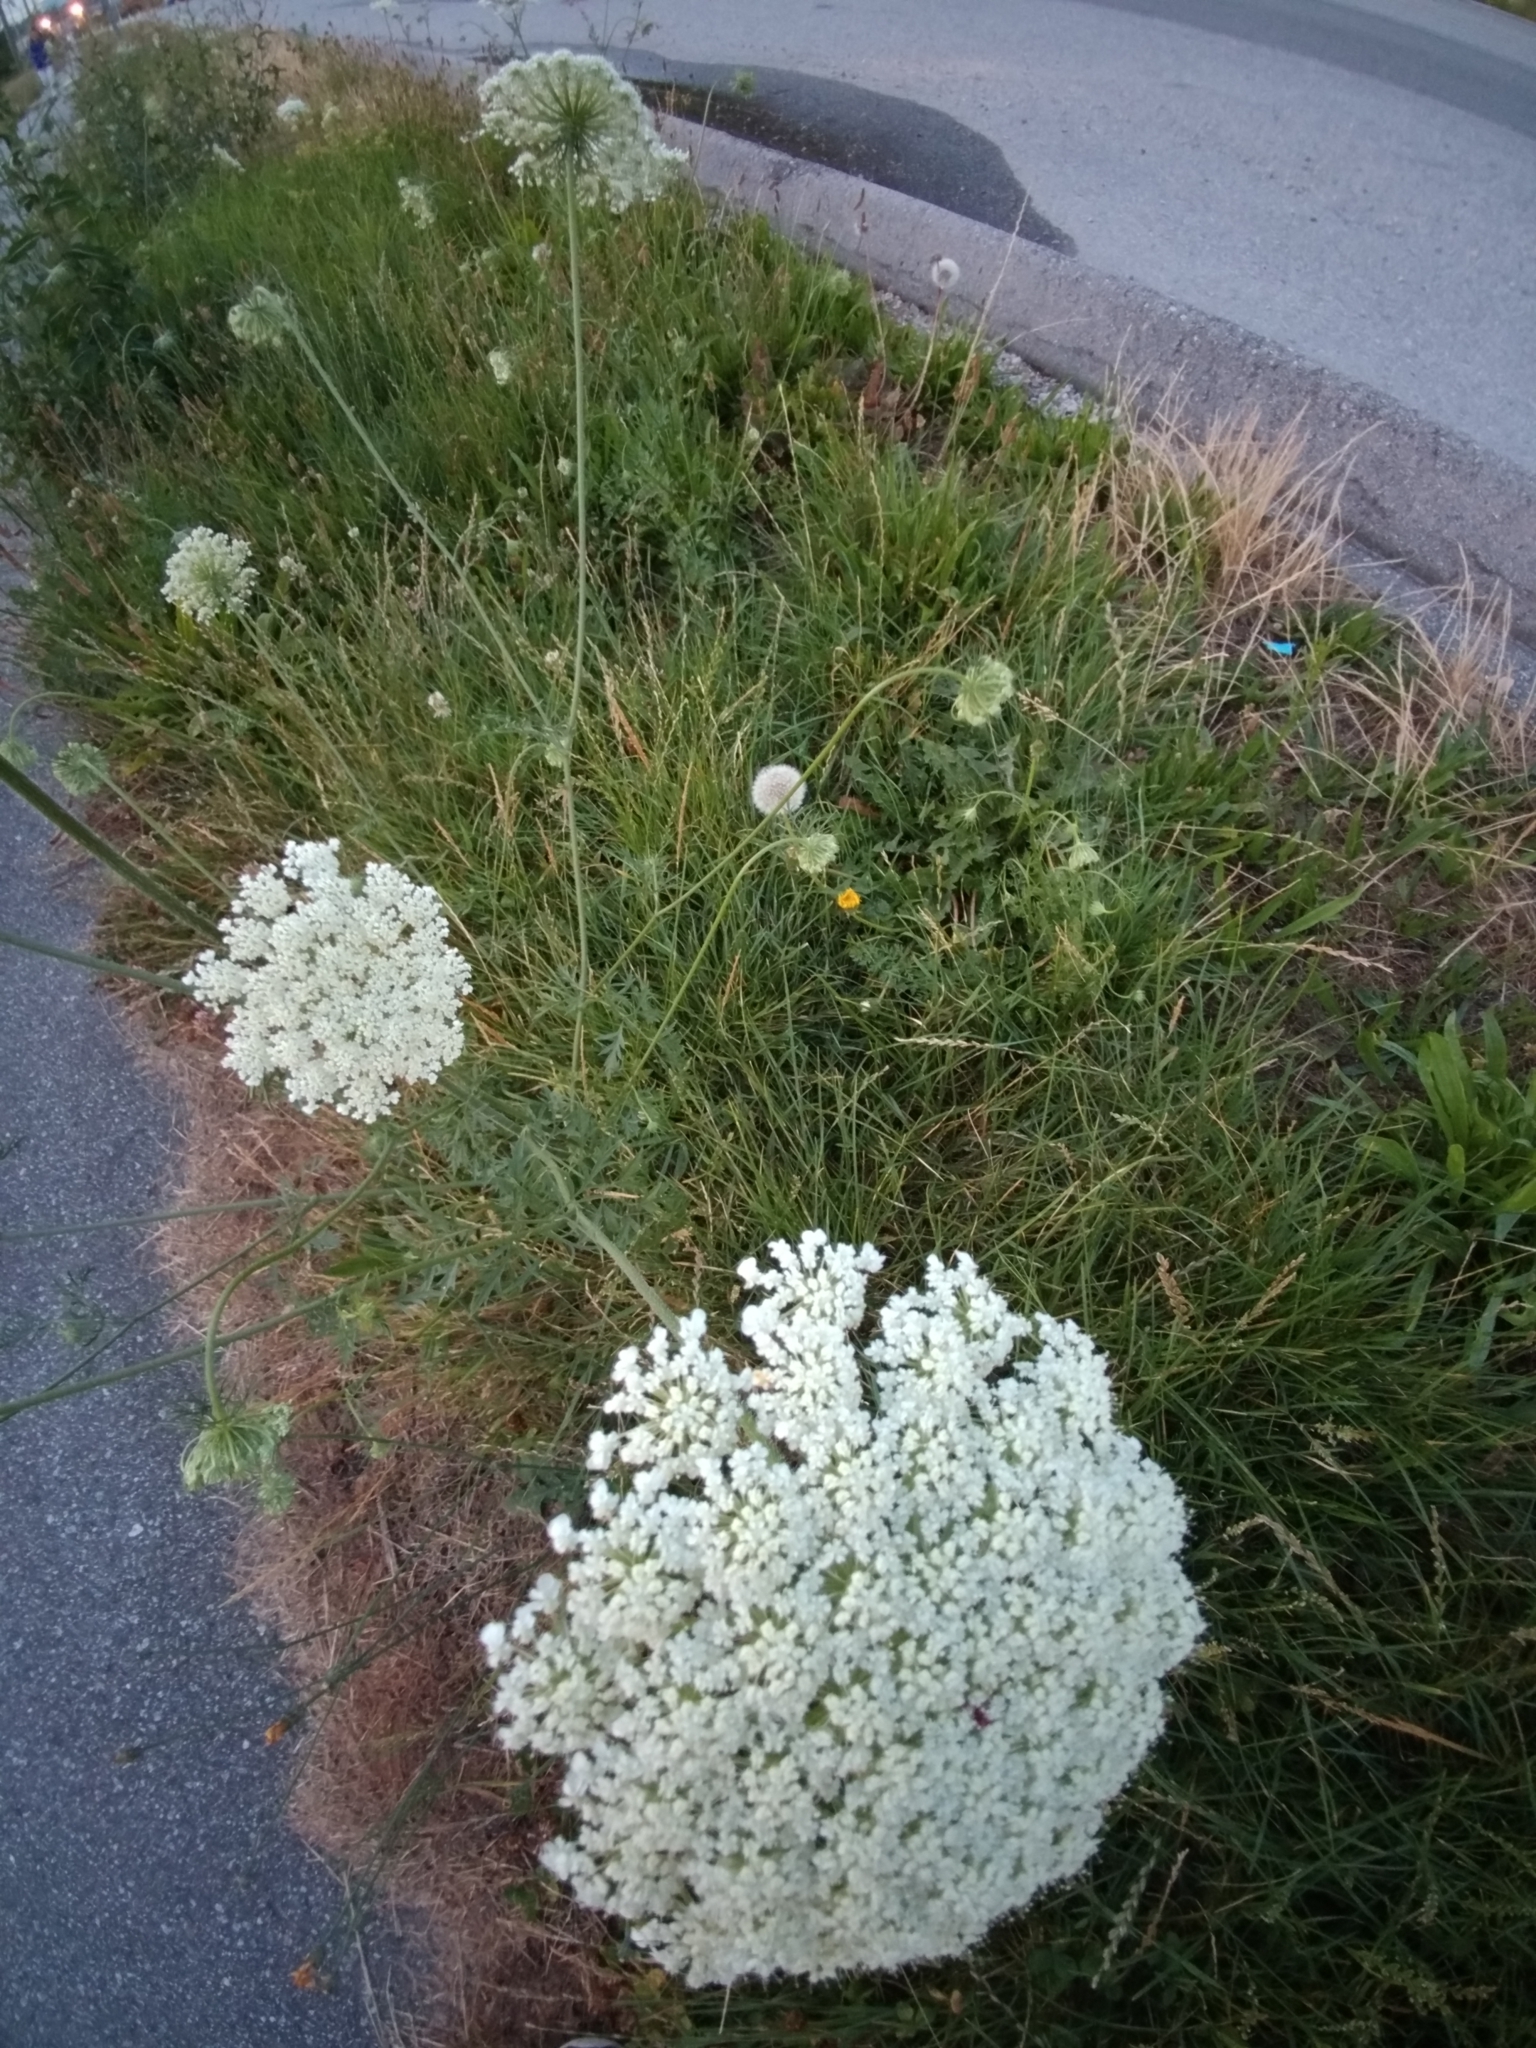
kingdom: Plantae
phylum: Tracheophyta
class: Magnoliopsida
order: Apiales
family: Apiaceae
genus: Daucus
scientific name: Daucus carota
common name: Wild carrot
